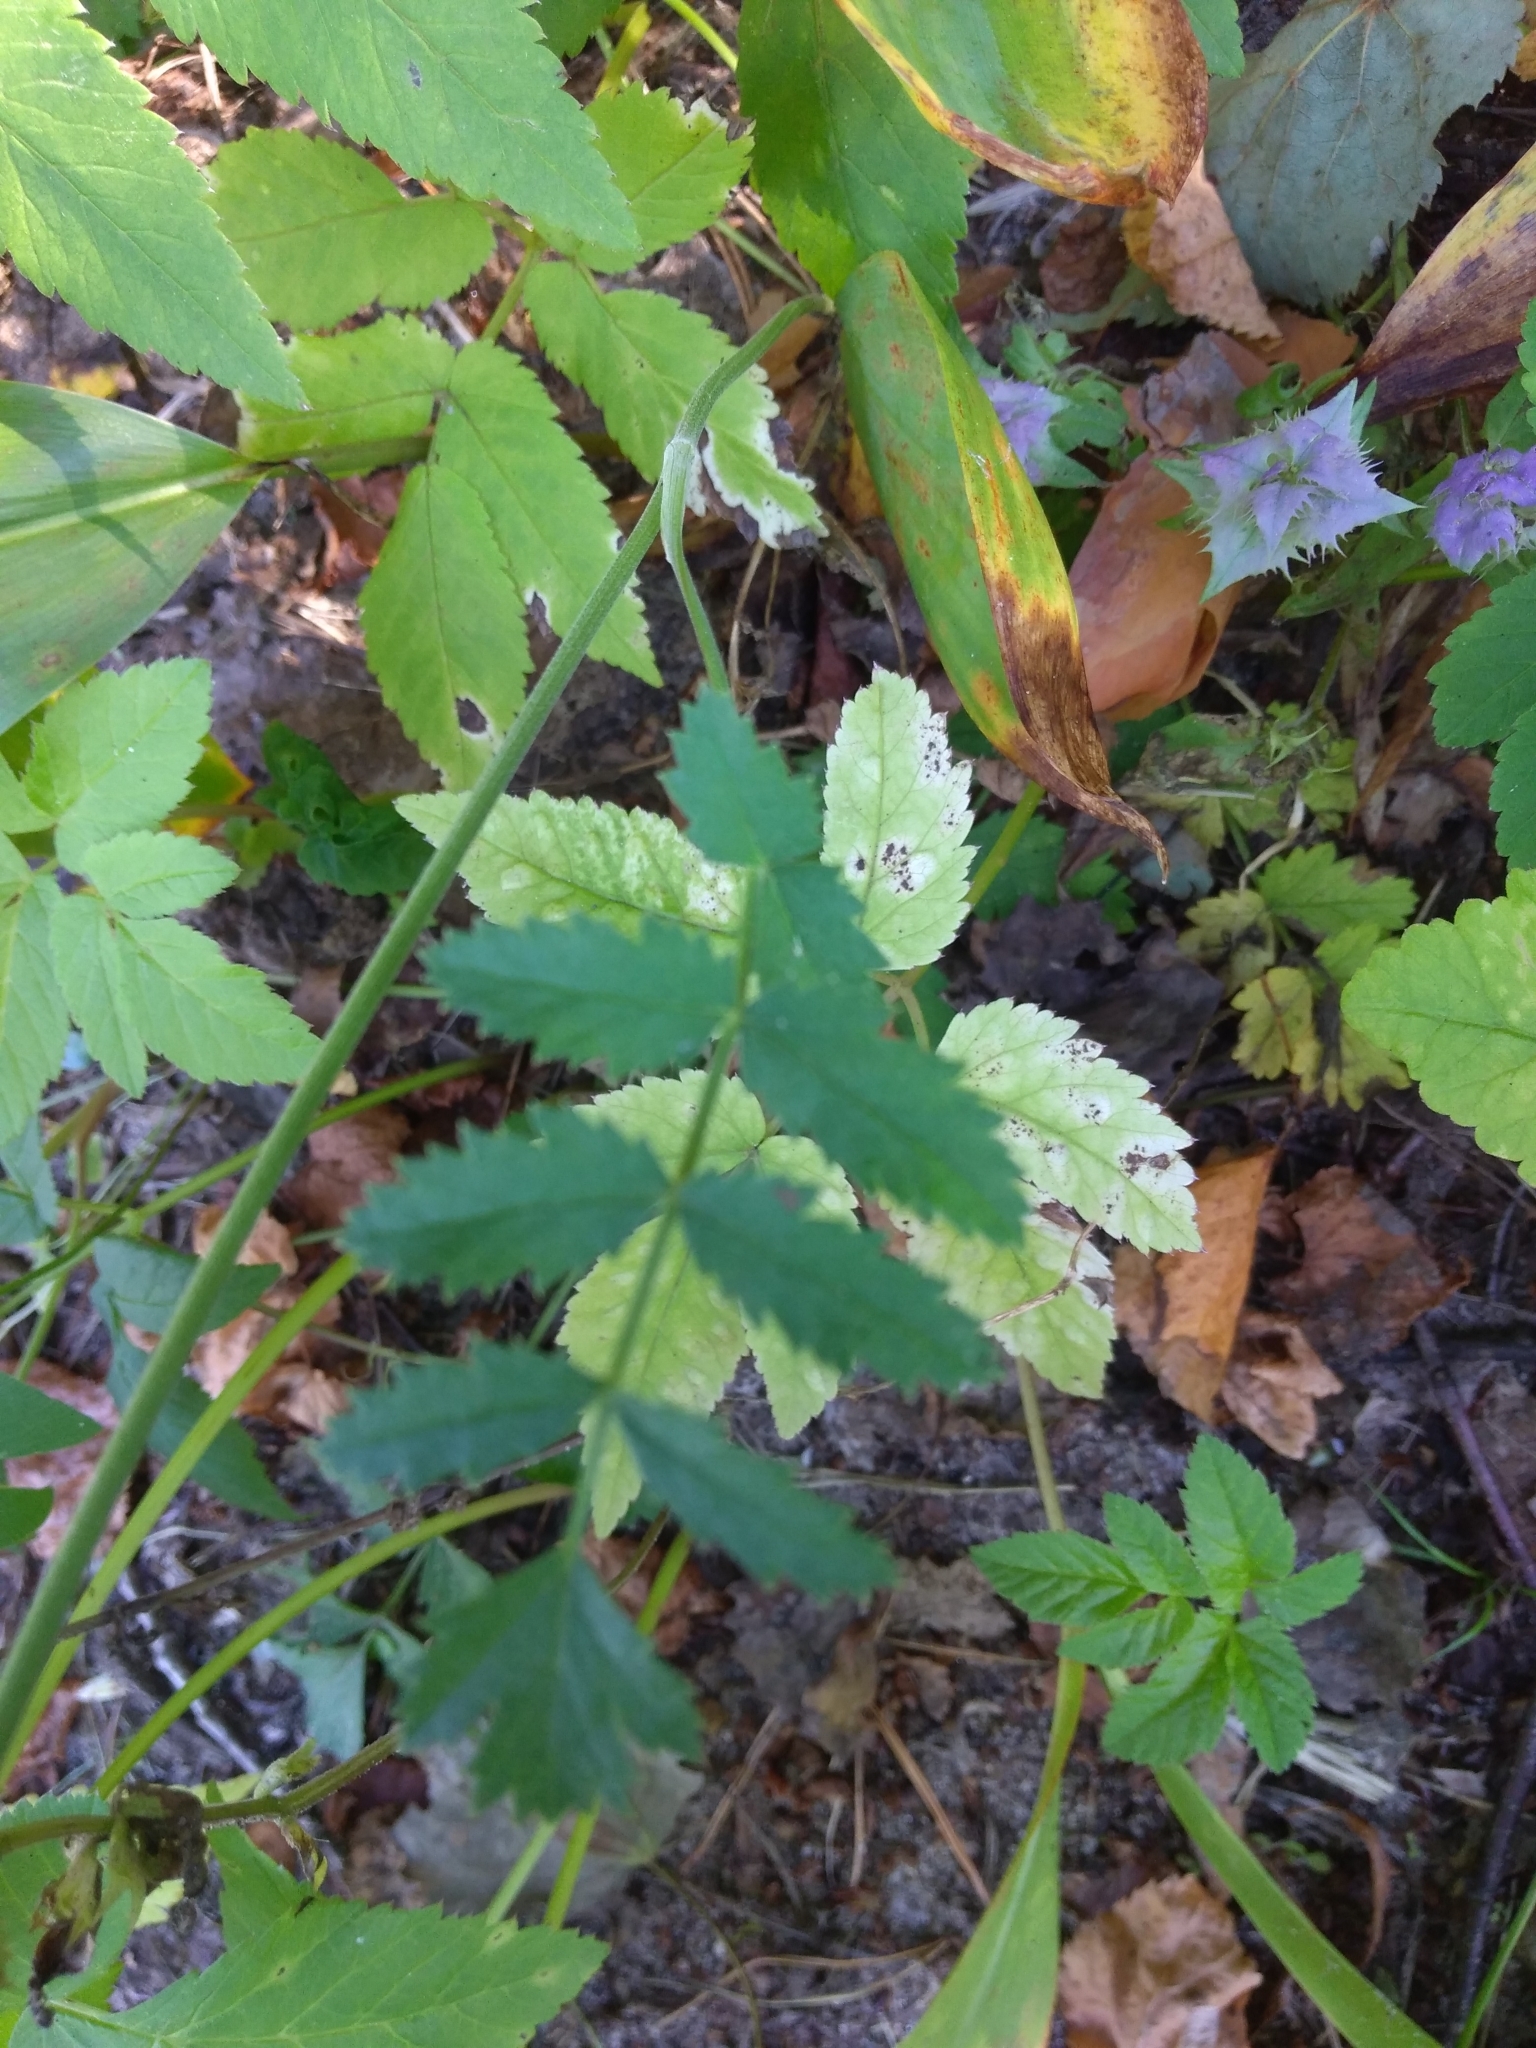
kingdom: Plantae
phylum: Tracheophyta
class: Magnoliopsida
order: Apiales
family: Apiaceae
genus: Pimpinella
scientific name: Pimpinella saxifraga
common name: Burnet-saxifrage
